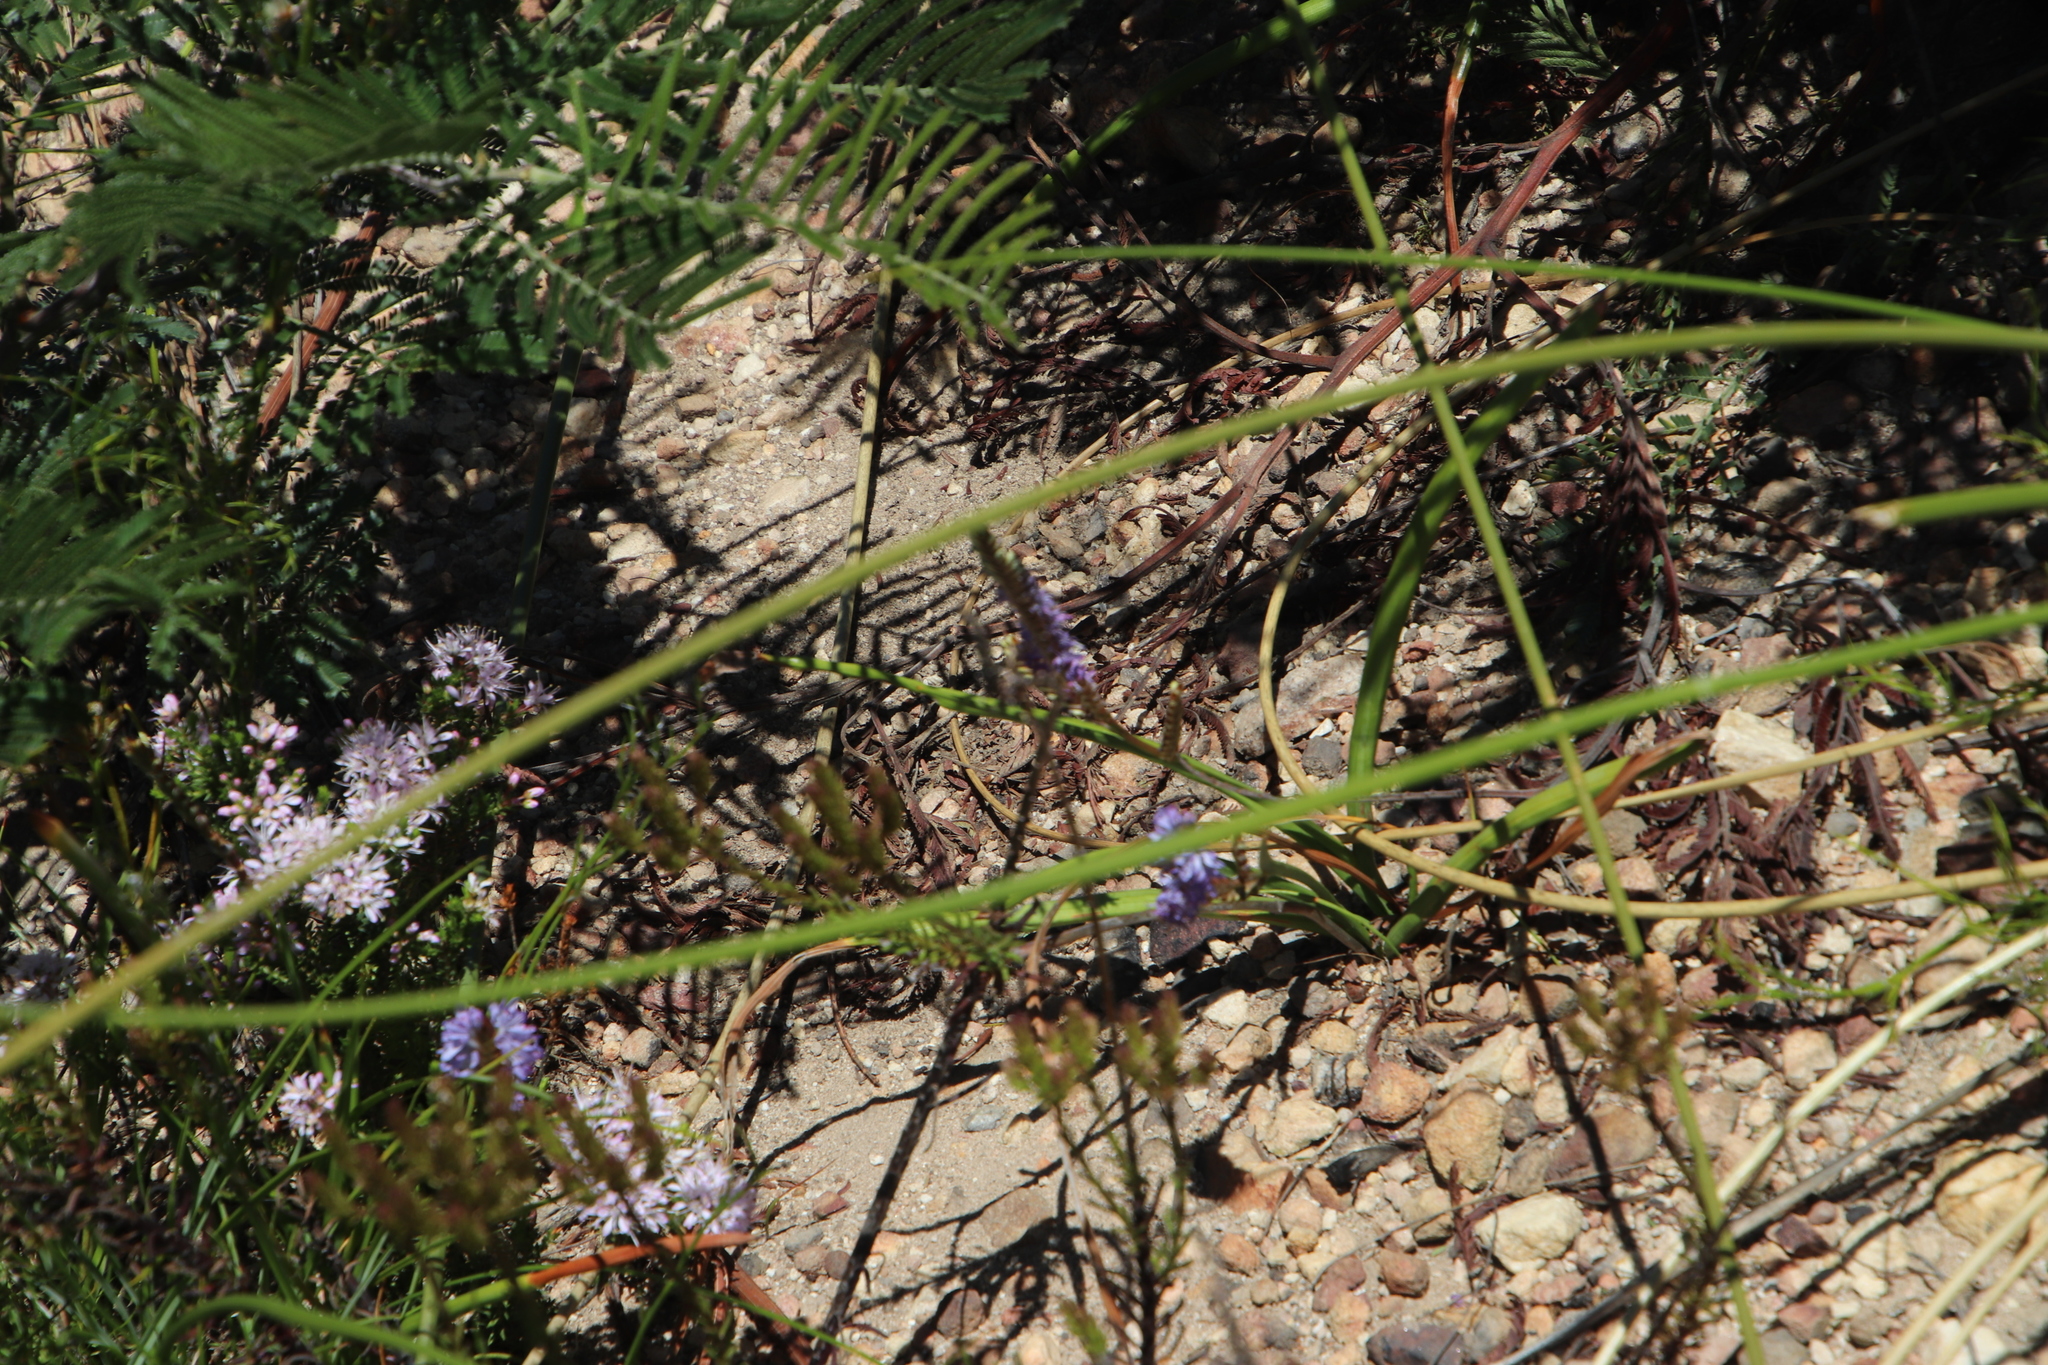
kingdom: Plantae
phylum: Tracheophyta
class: Liliopsida
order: Asparagales
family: Iridaceae
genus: Micranthus
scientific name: Micranthus tubulosus
